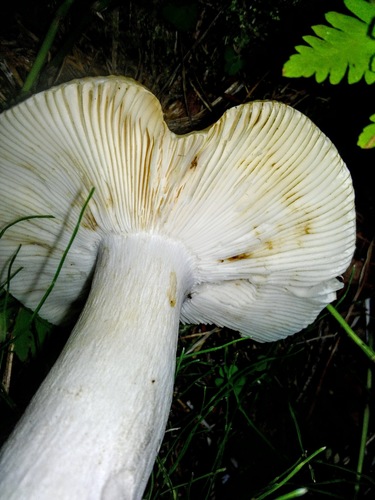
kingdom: Fungi
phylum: Basidiomycota
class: Agaricomycetes
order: Russulales
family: Russulaceae
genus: Russula
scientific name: Russula aeruginea
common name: Green brittlegill
